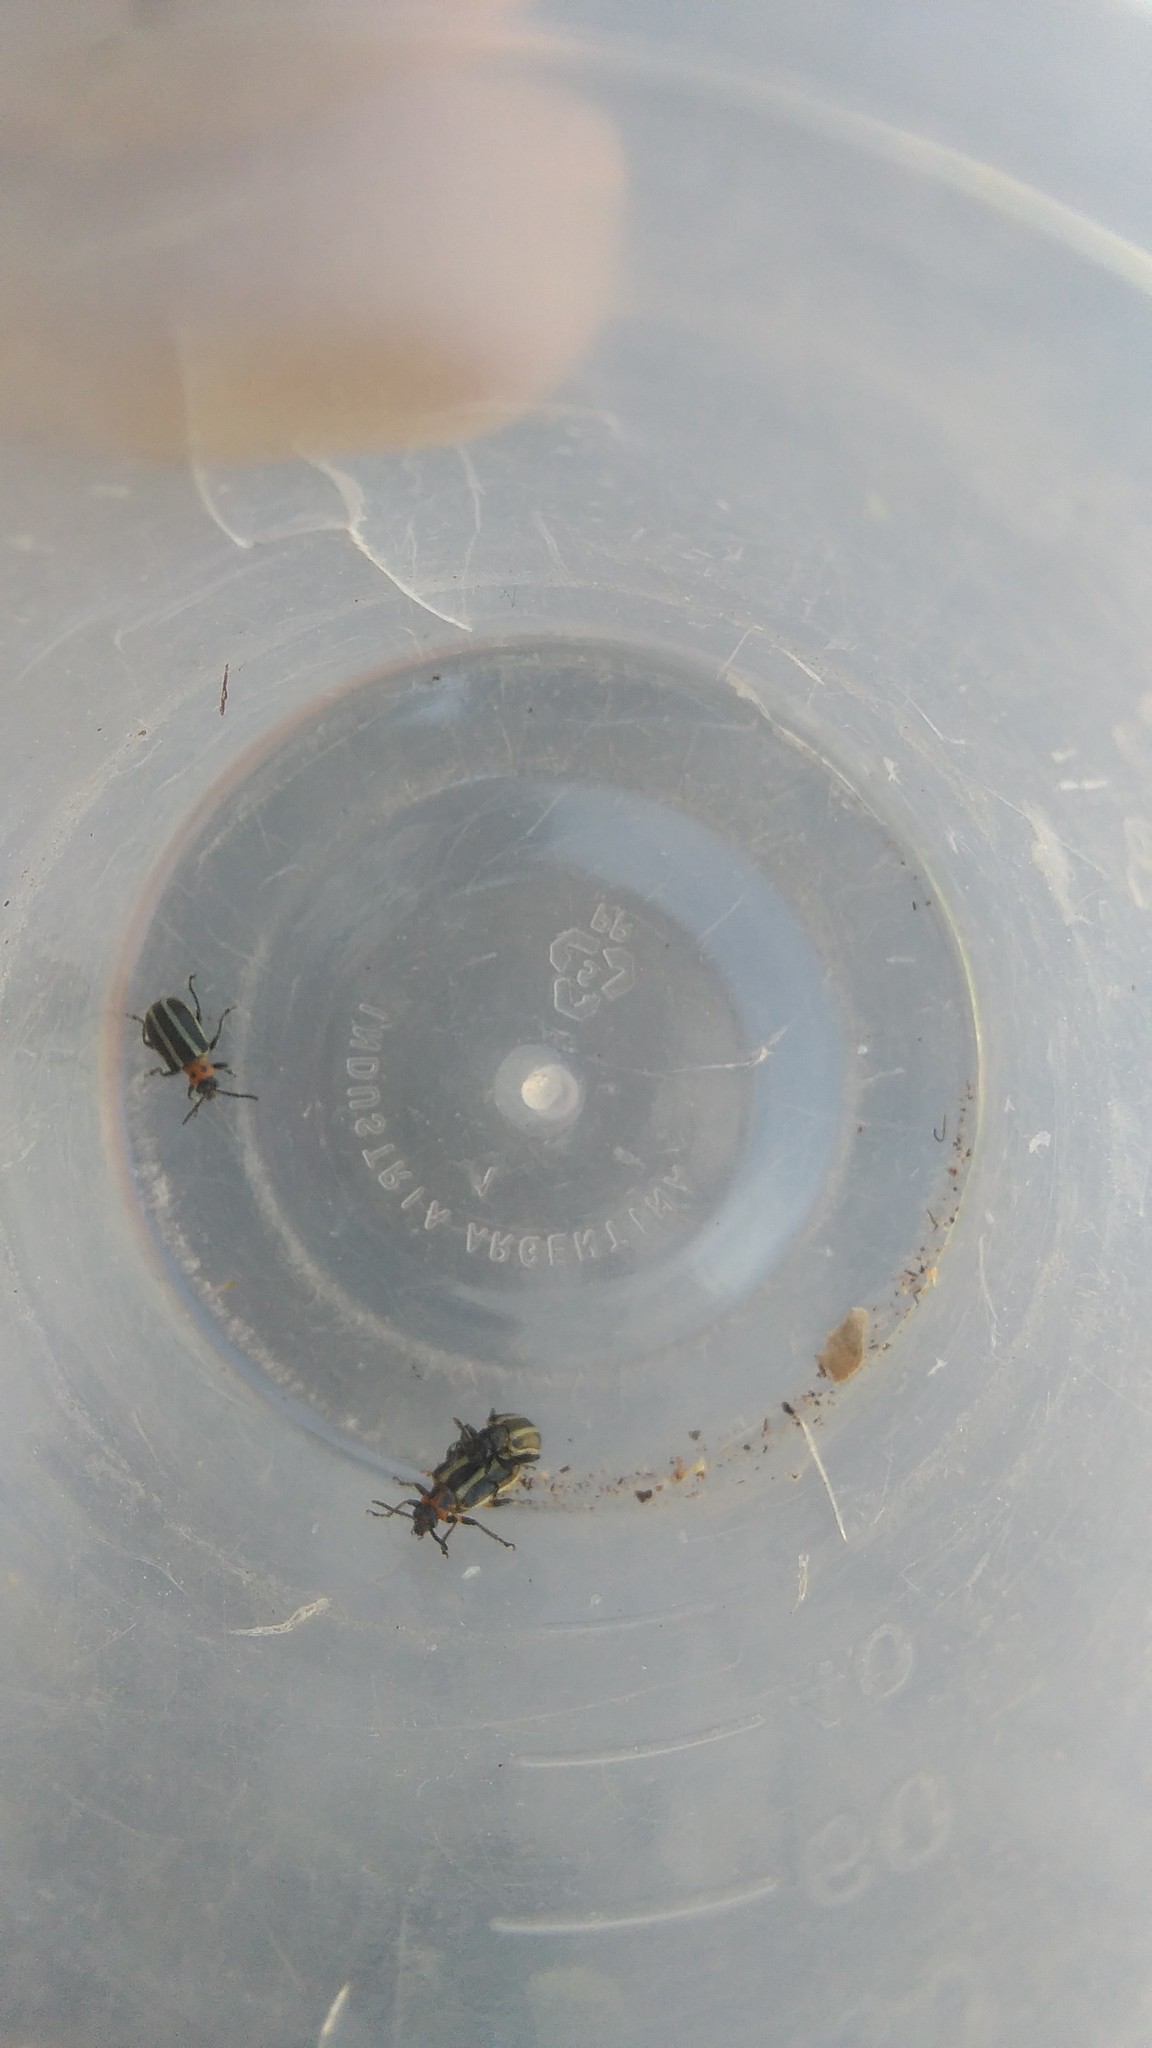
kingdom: Animalia
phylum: Arthropoda
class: Insecta
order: Coleoptera
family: Chrysomelidae
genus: Lema
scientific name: Lema bilineata
